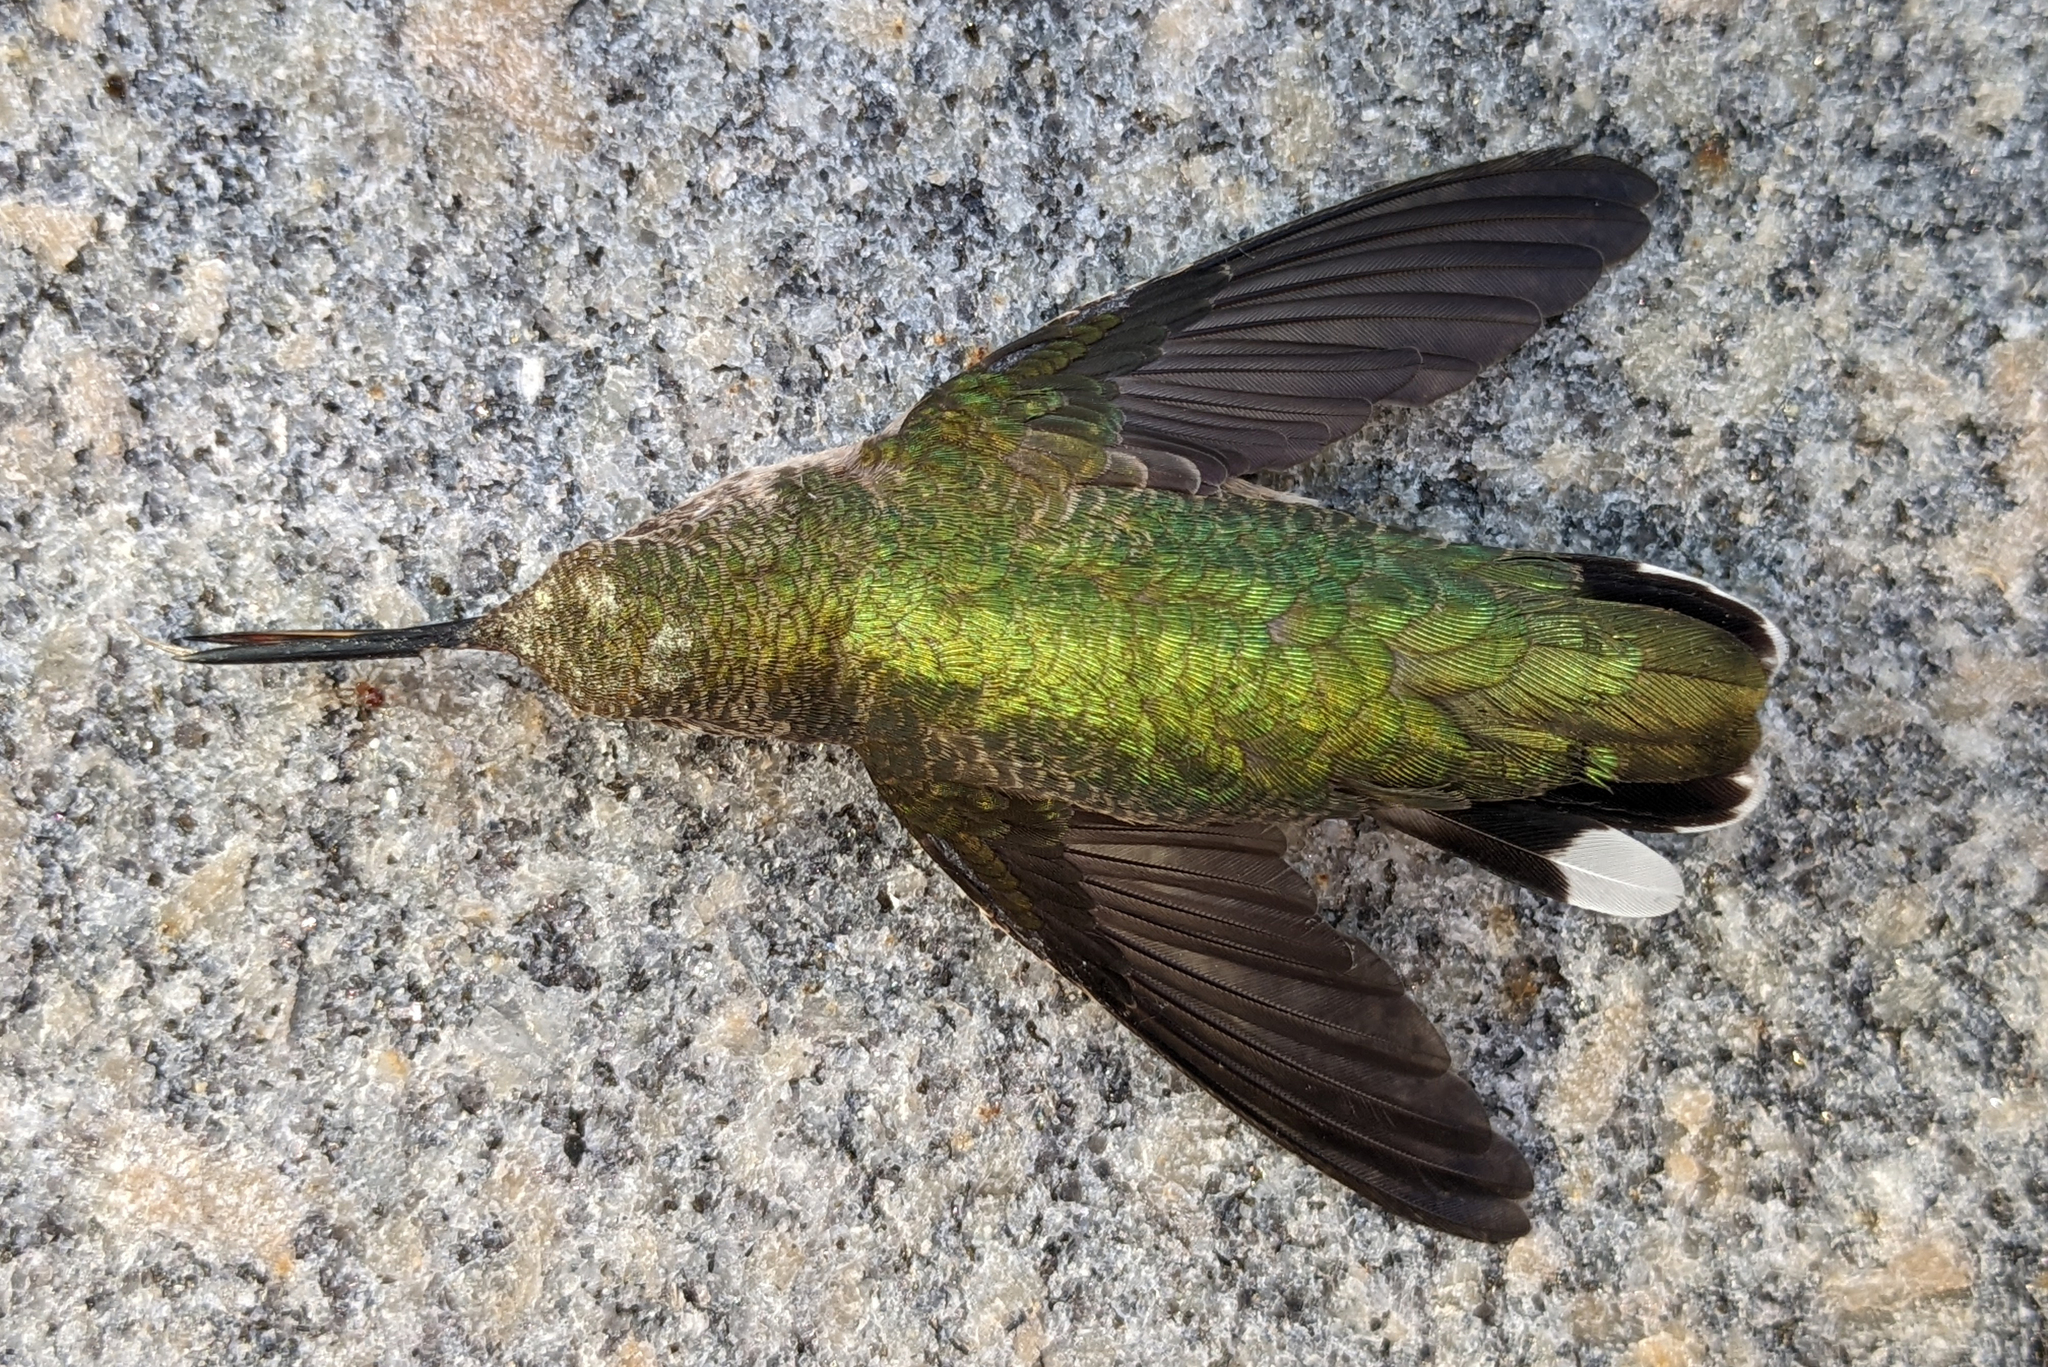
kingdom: Animalia
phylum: Chordata
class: Aves
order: Apodiformes
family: Trochilidae
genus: Archilochus
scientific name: Archilochus colubris
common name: Ruby-throated hummingbird
